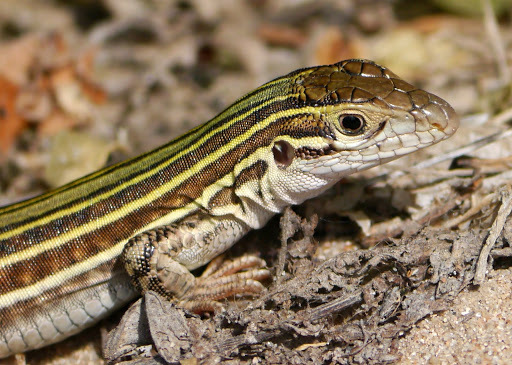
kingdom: Animalia
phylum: Chordata
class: Squamata
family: Teiidae
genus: Aspidoscelis
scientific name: Aspidoscelis gularis
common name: Eastern spotted whiptail
